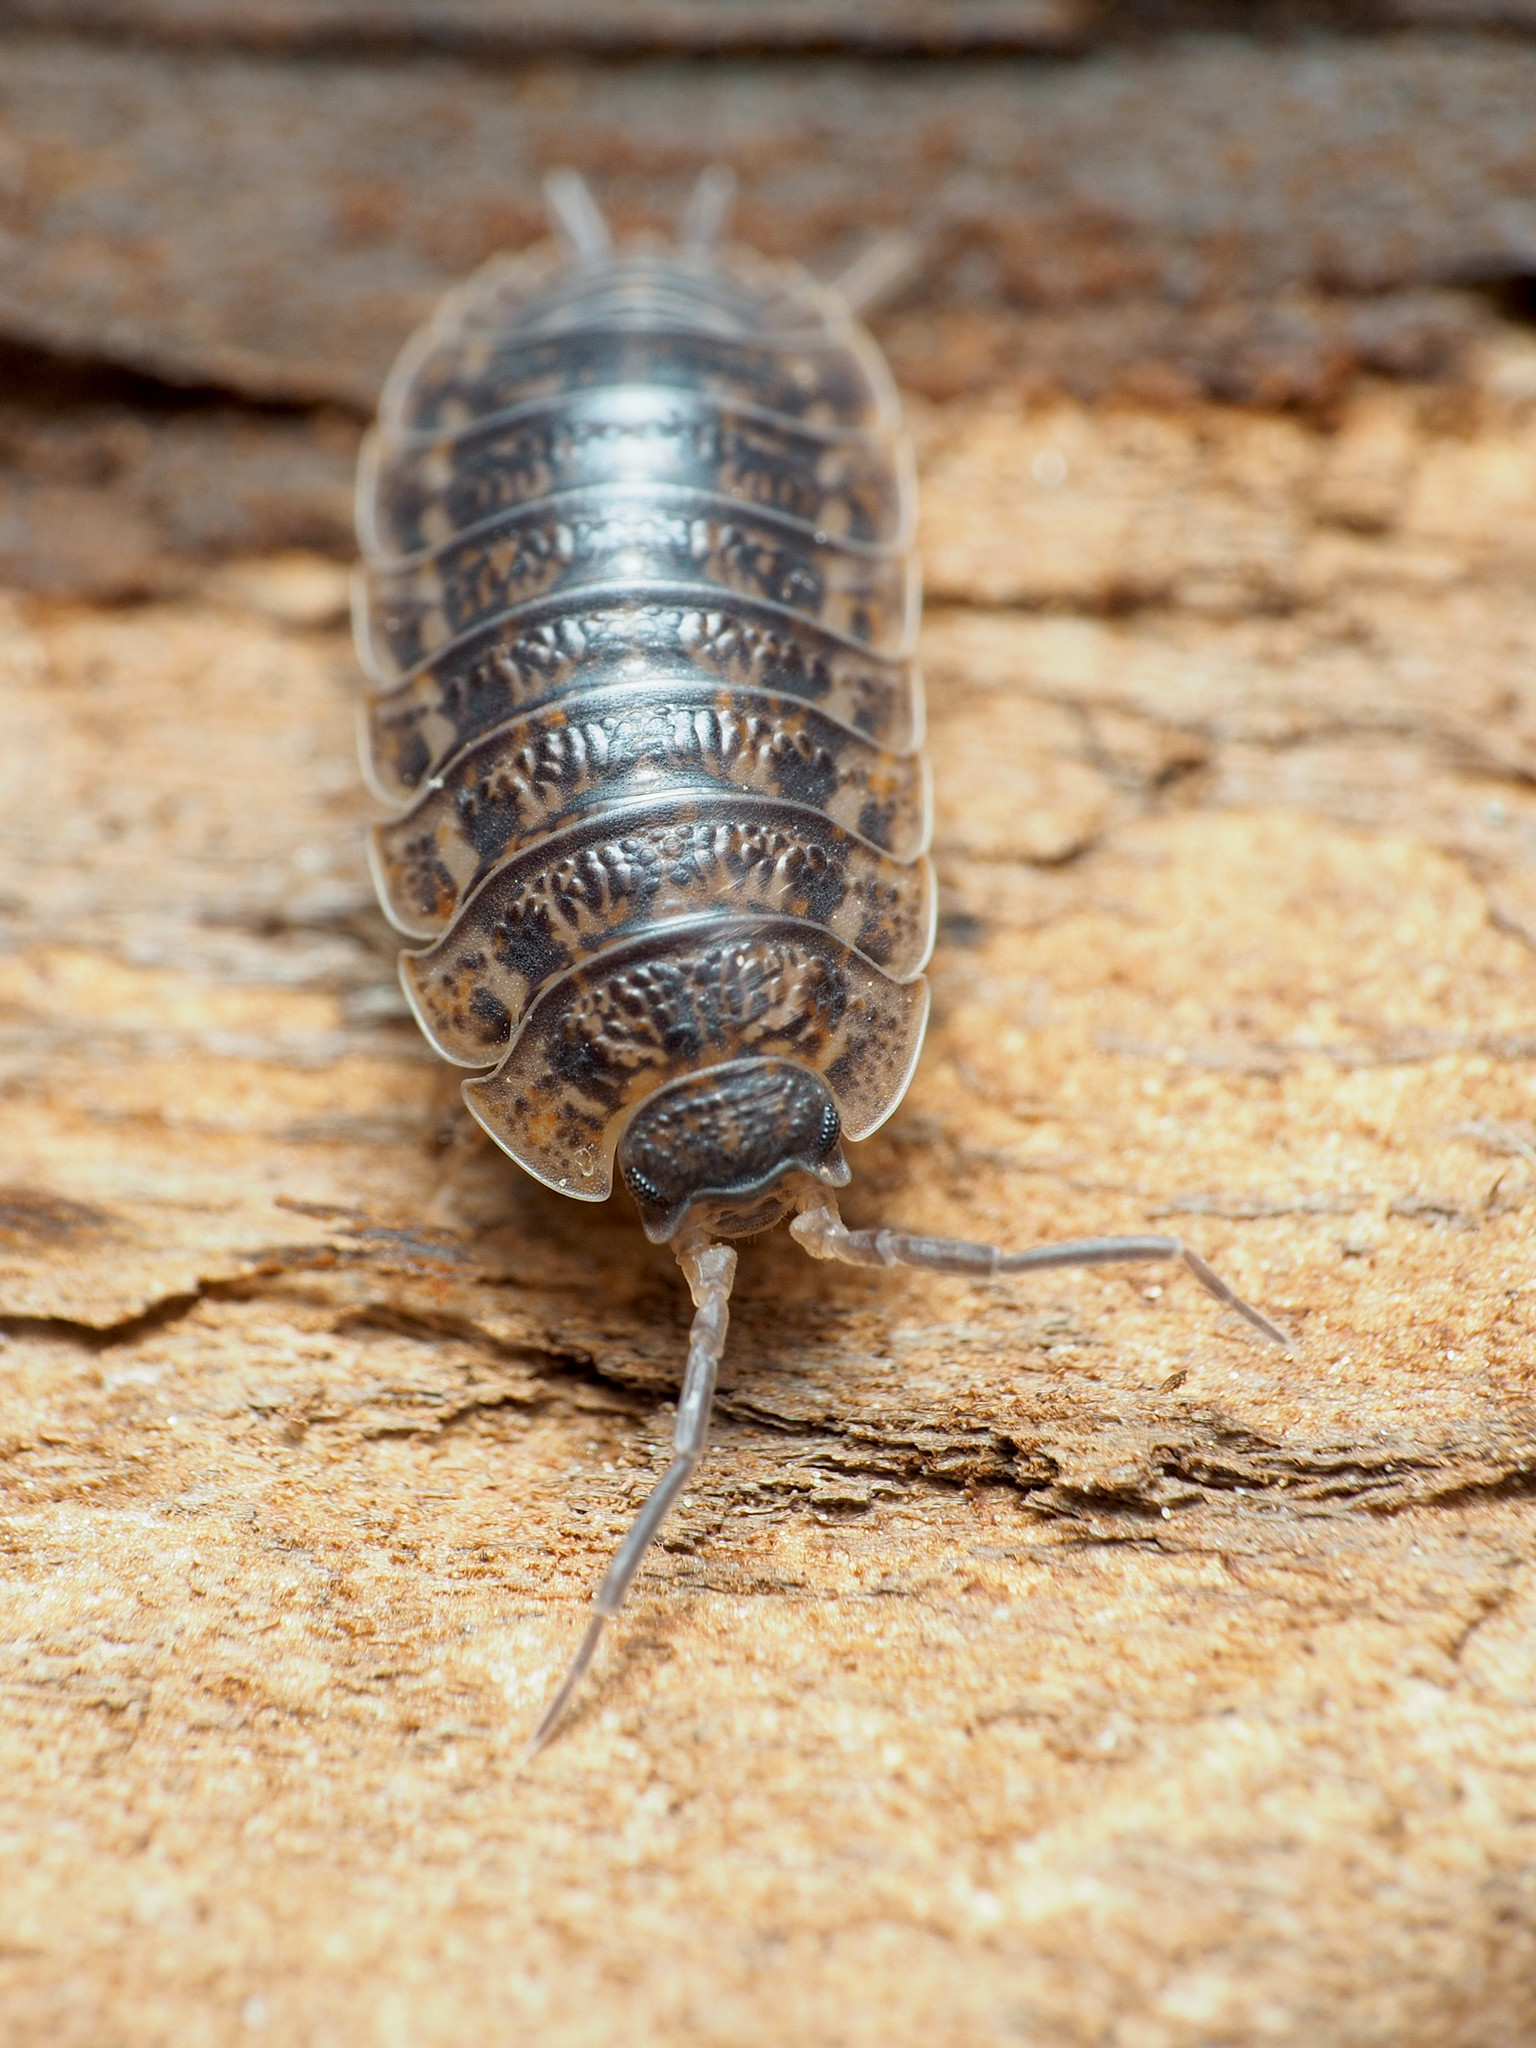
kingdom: Animalia
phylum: Arthropoda
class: Malacostraca
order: Isopoda
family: Trachelipodidae
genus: Trachelipus
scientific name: Trachelipus rathkii
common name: Isopod
